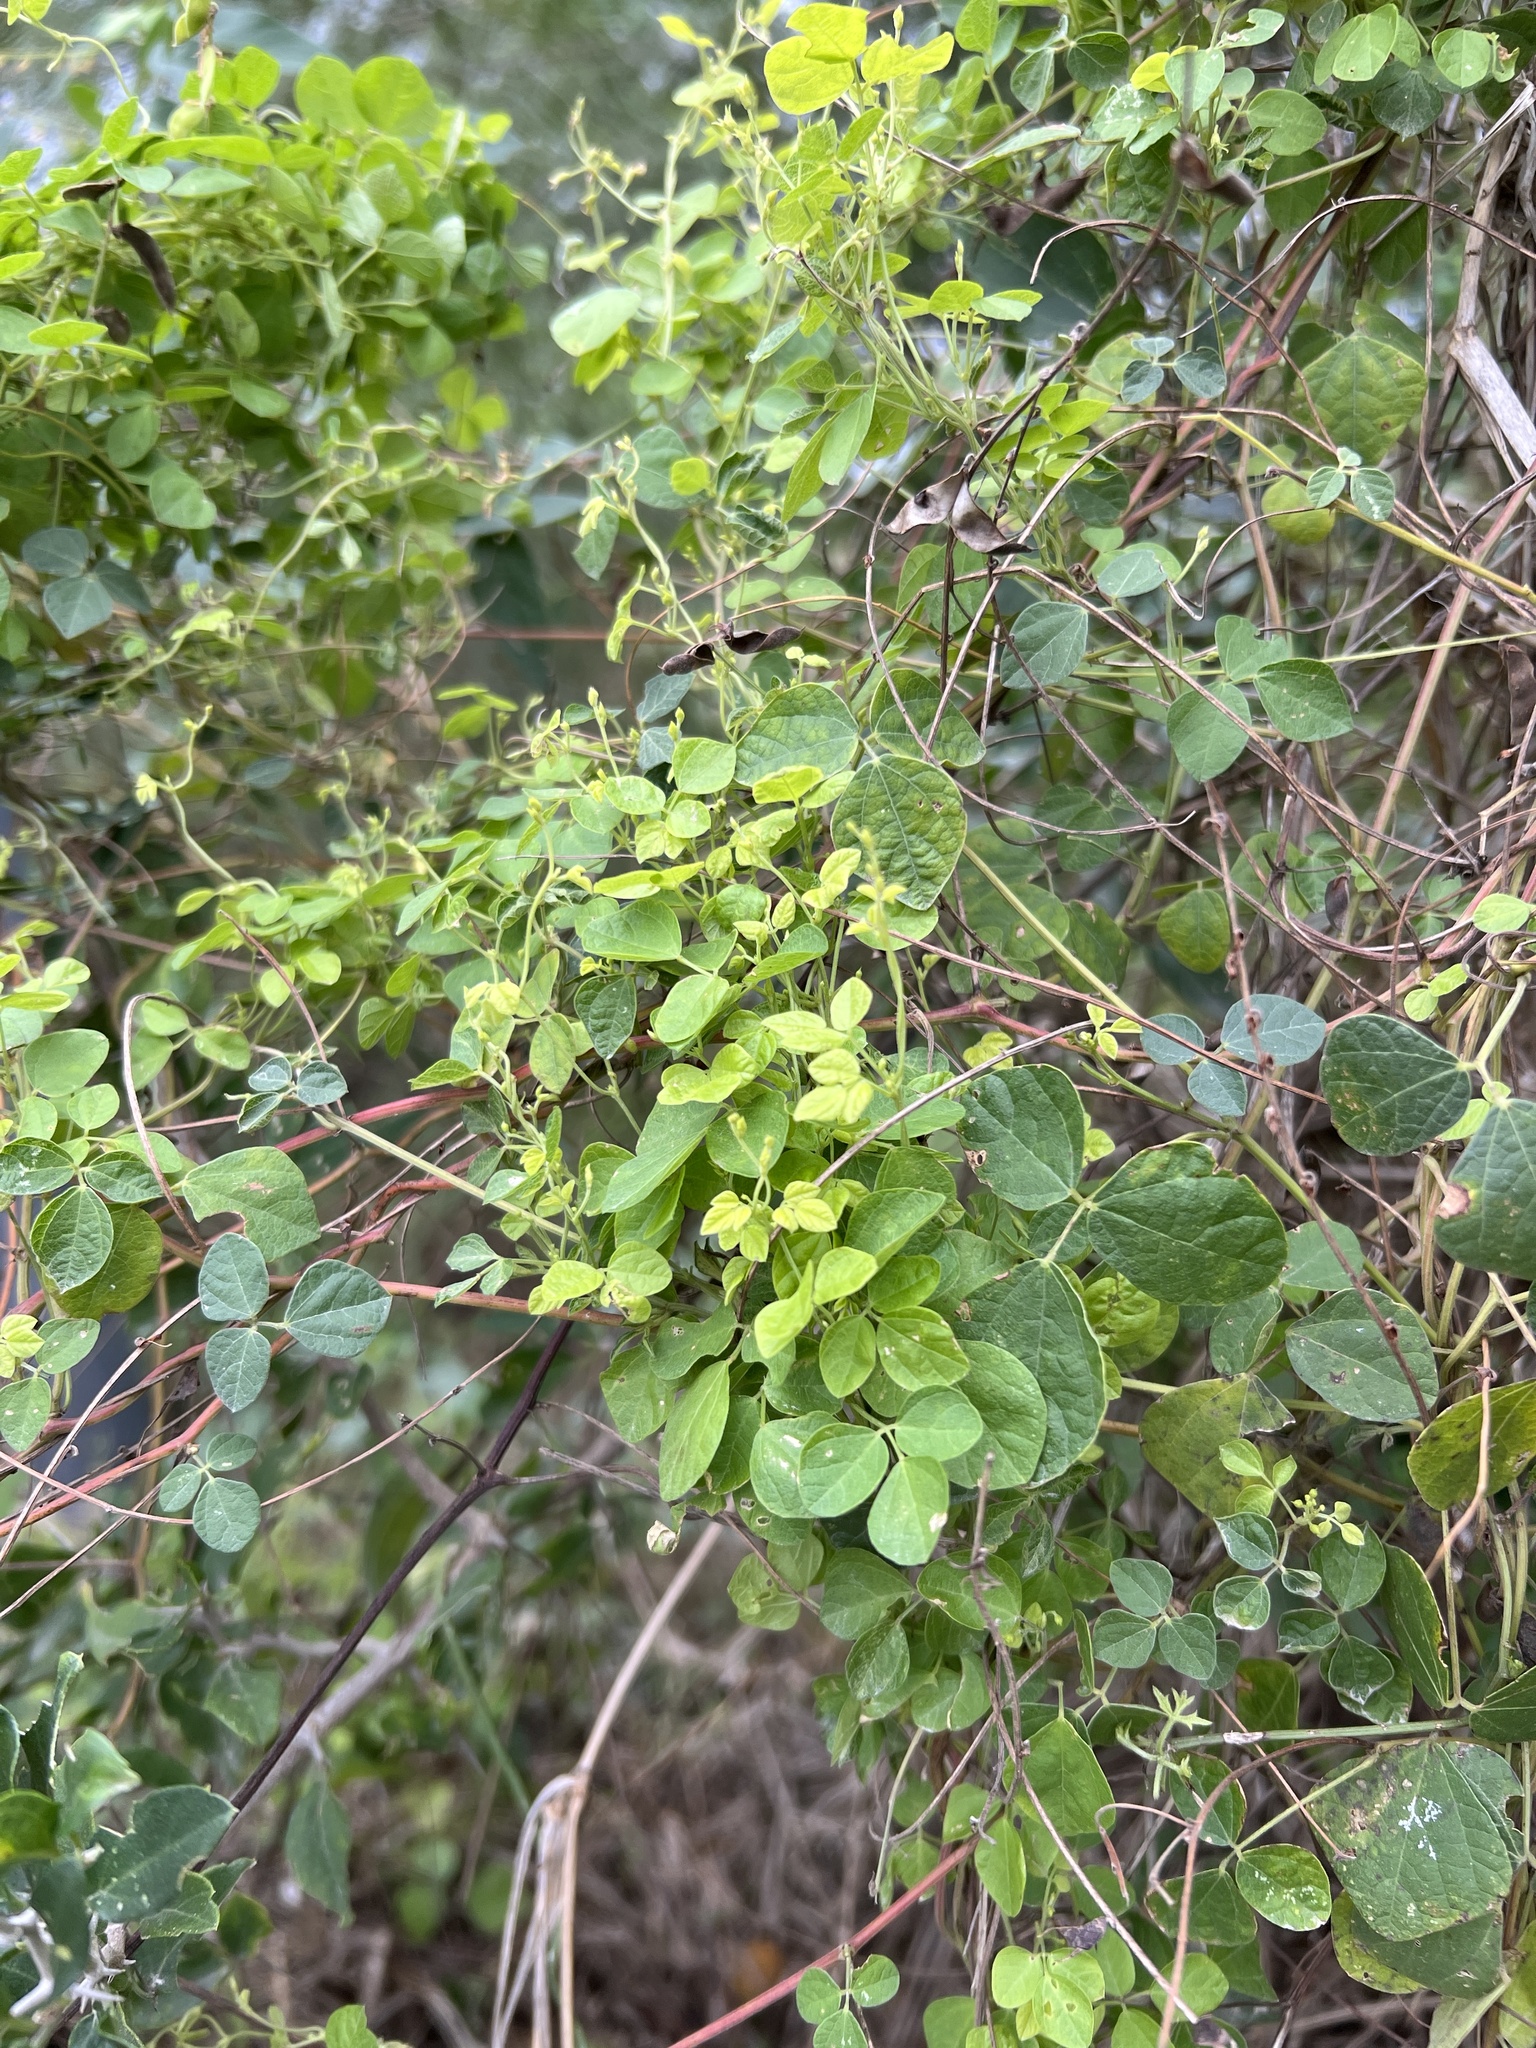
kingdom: Plantae
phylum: Tracheophyta
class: Magnoliopsida
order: Fabales
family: Fabaceae
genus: Rhynchosia
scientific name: Rhynchosia minima
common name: Least snoutbean
